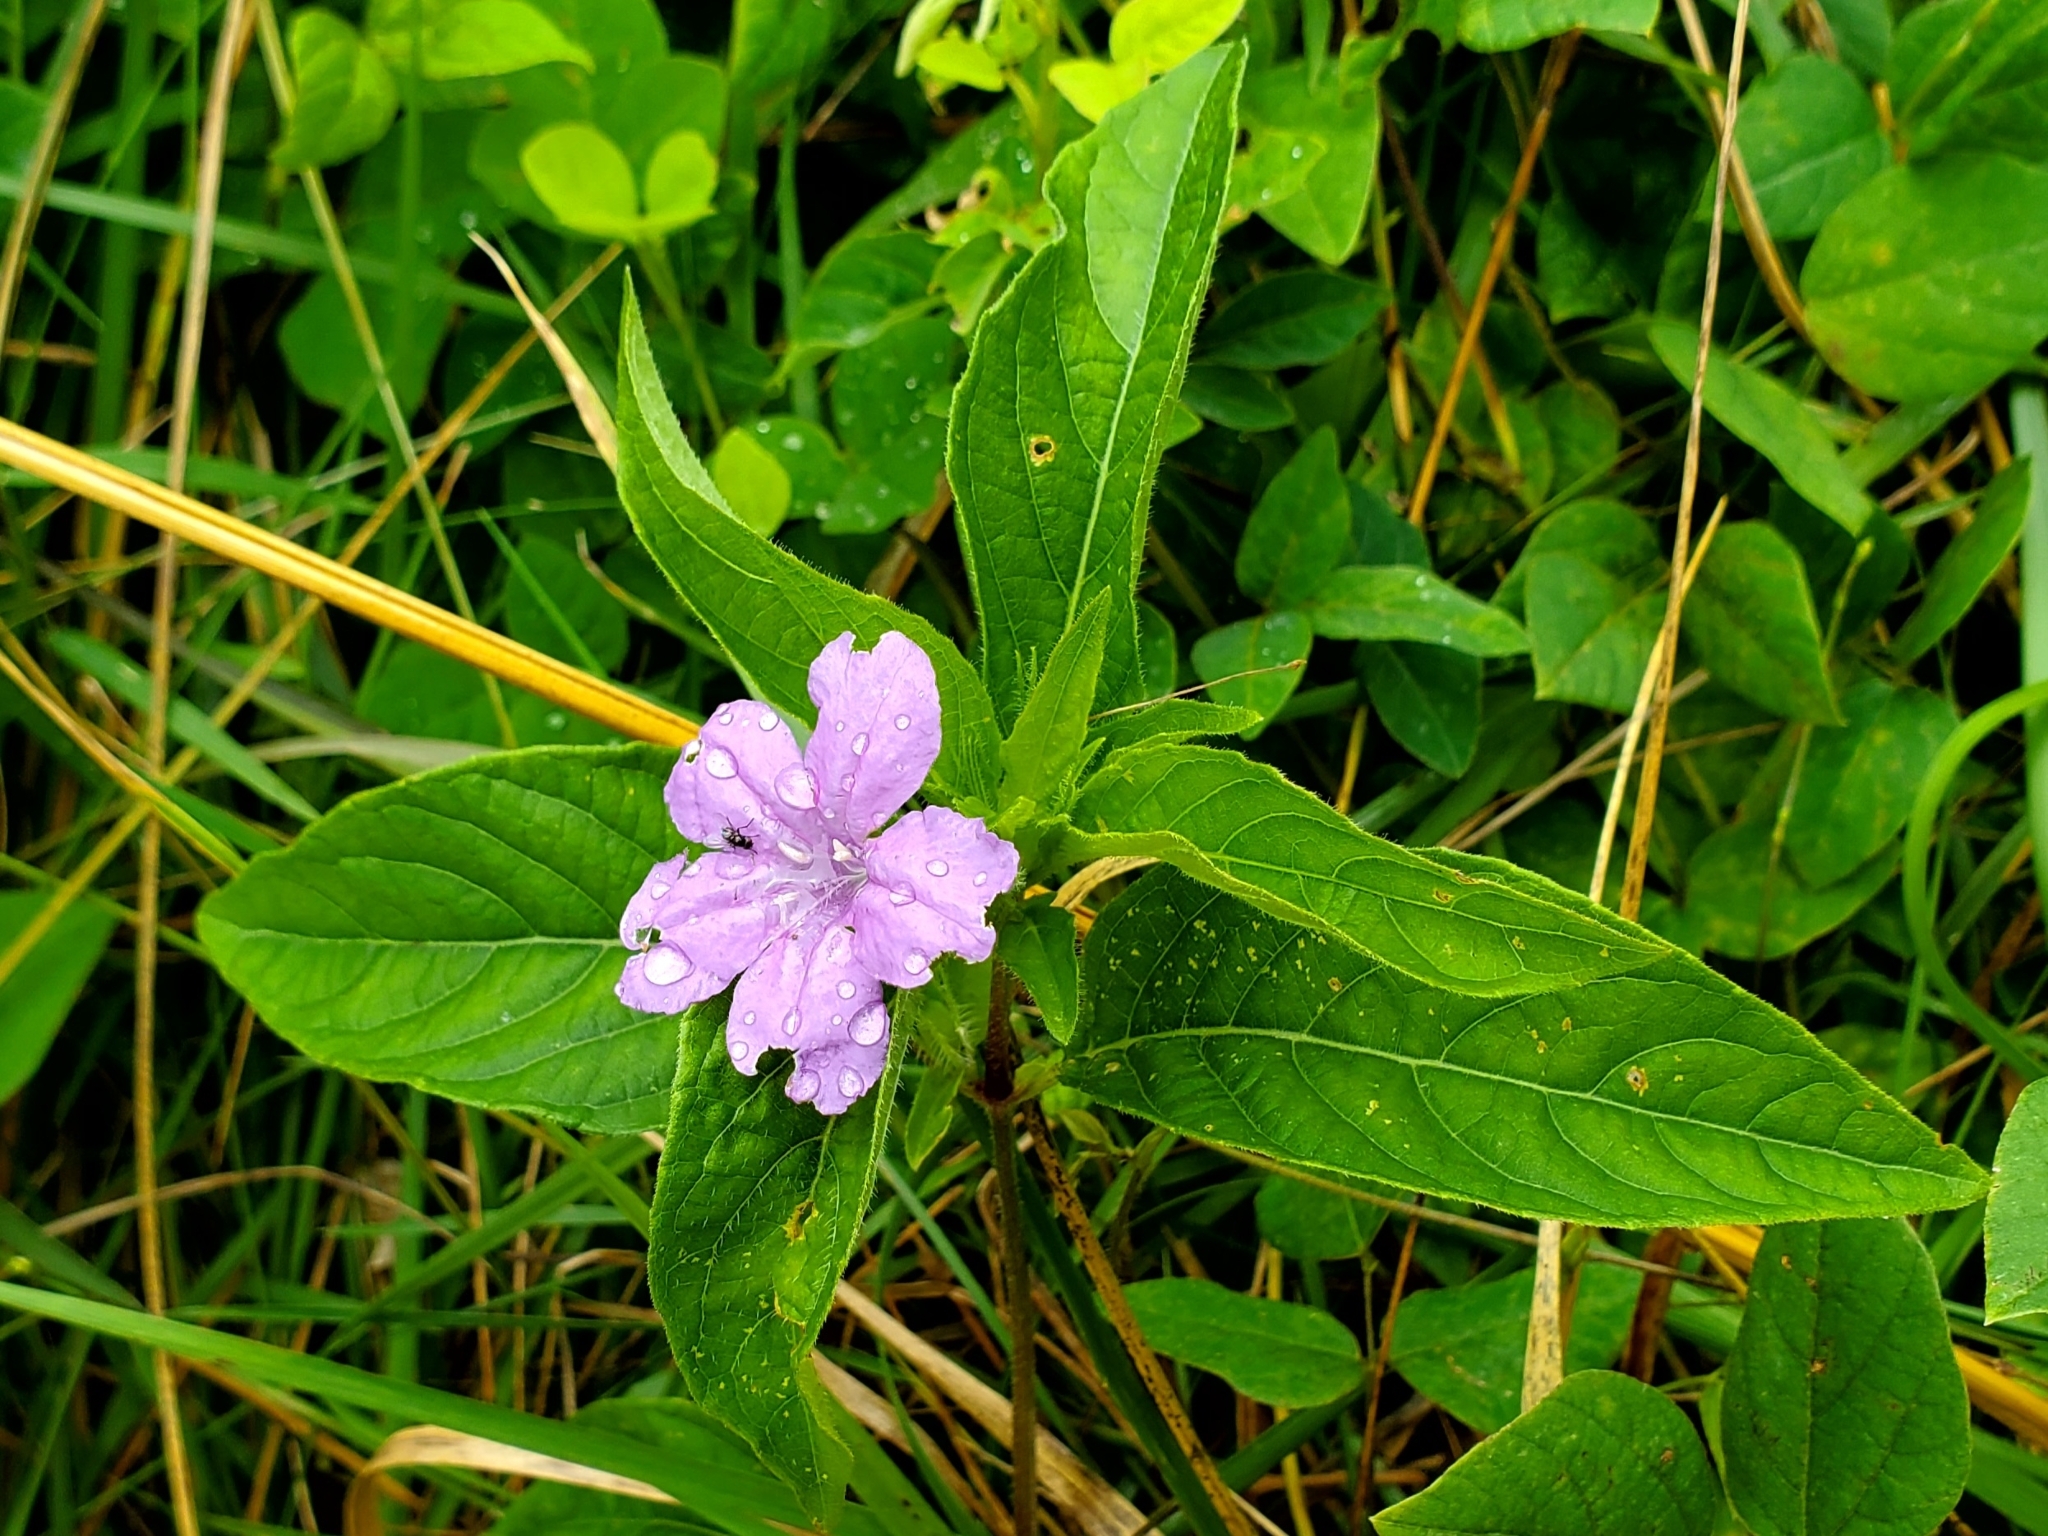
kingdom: Plantae
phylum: Tracheophyta
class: Magnoliopsida
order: Lamiales
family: Acanthaceae
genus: Ruellia
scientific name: Ruellia caroliniensis
